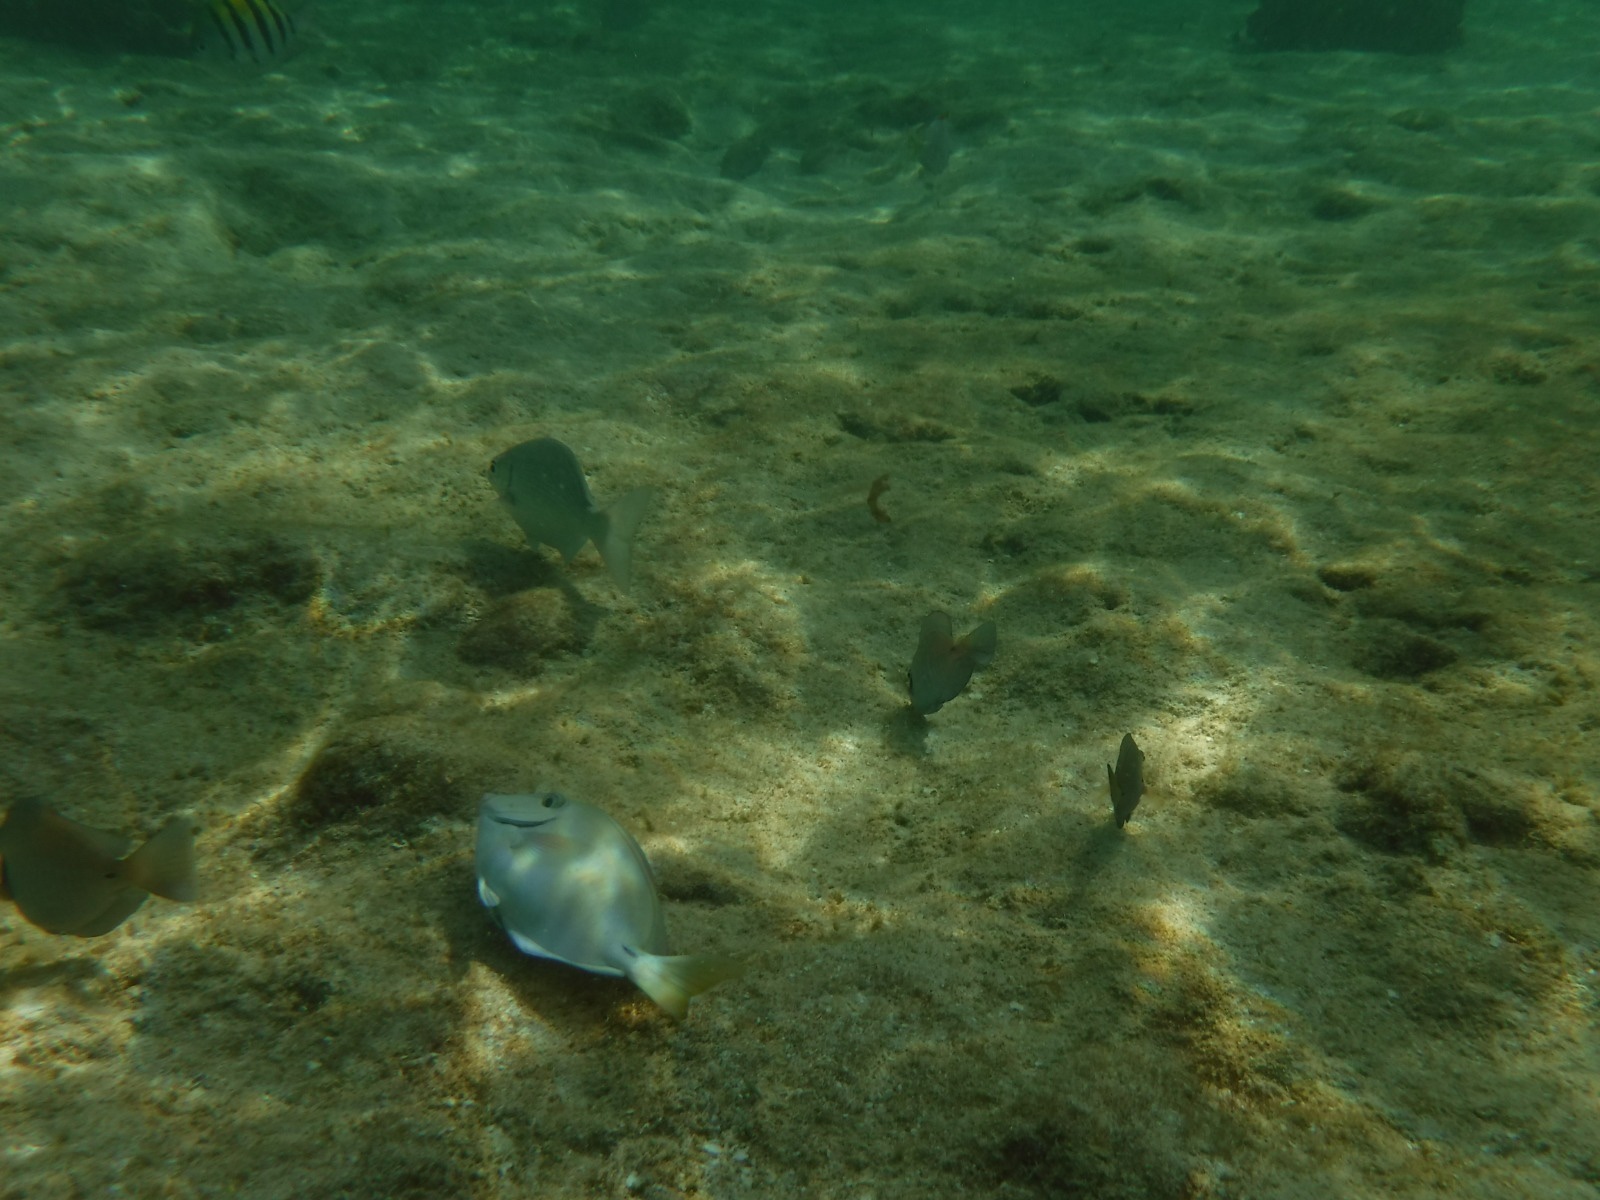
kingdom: Animalia
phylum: Chordata
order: Perciformes
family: Acanthuridae
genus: Acanthurus
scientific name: Acanthurus bahianus
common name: Ocean surgeon
